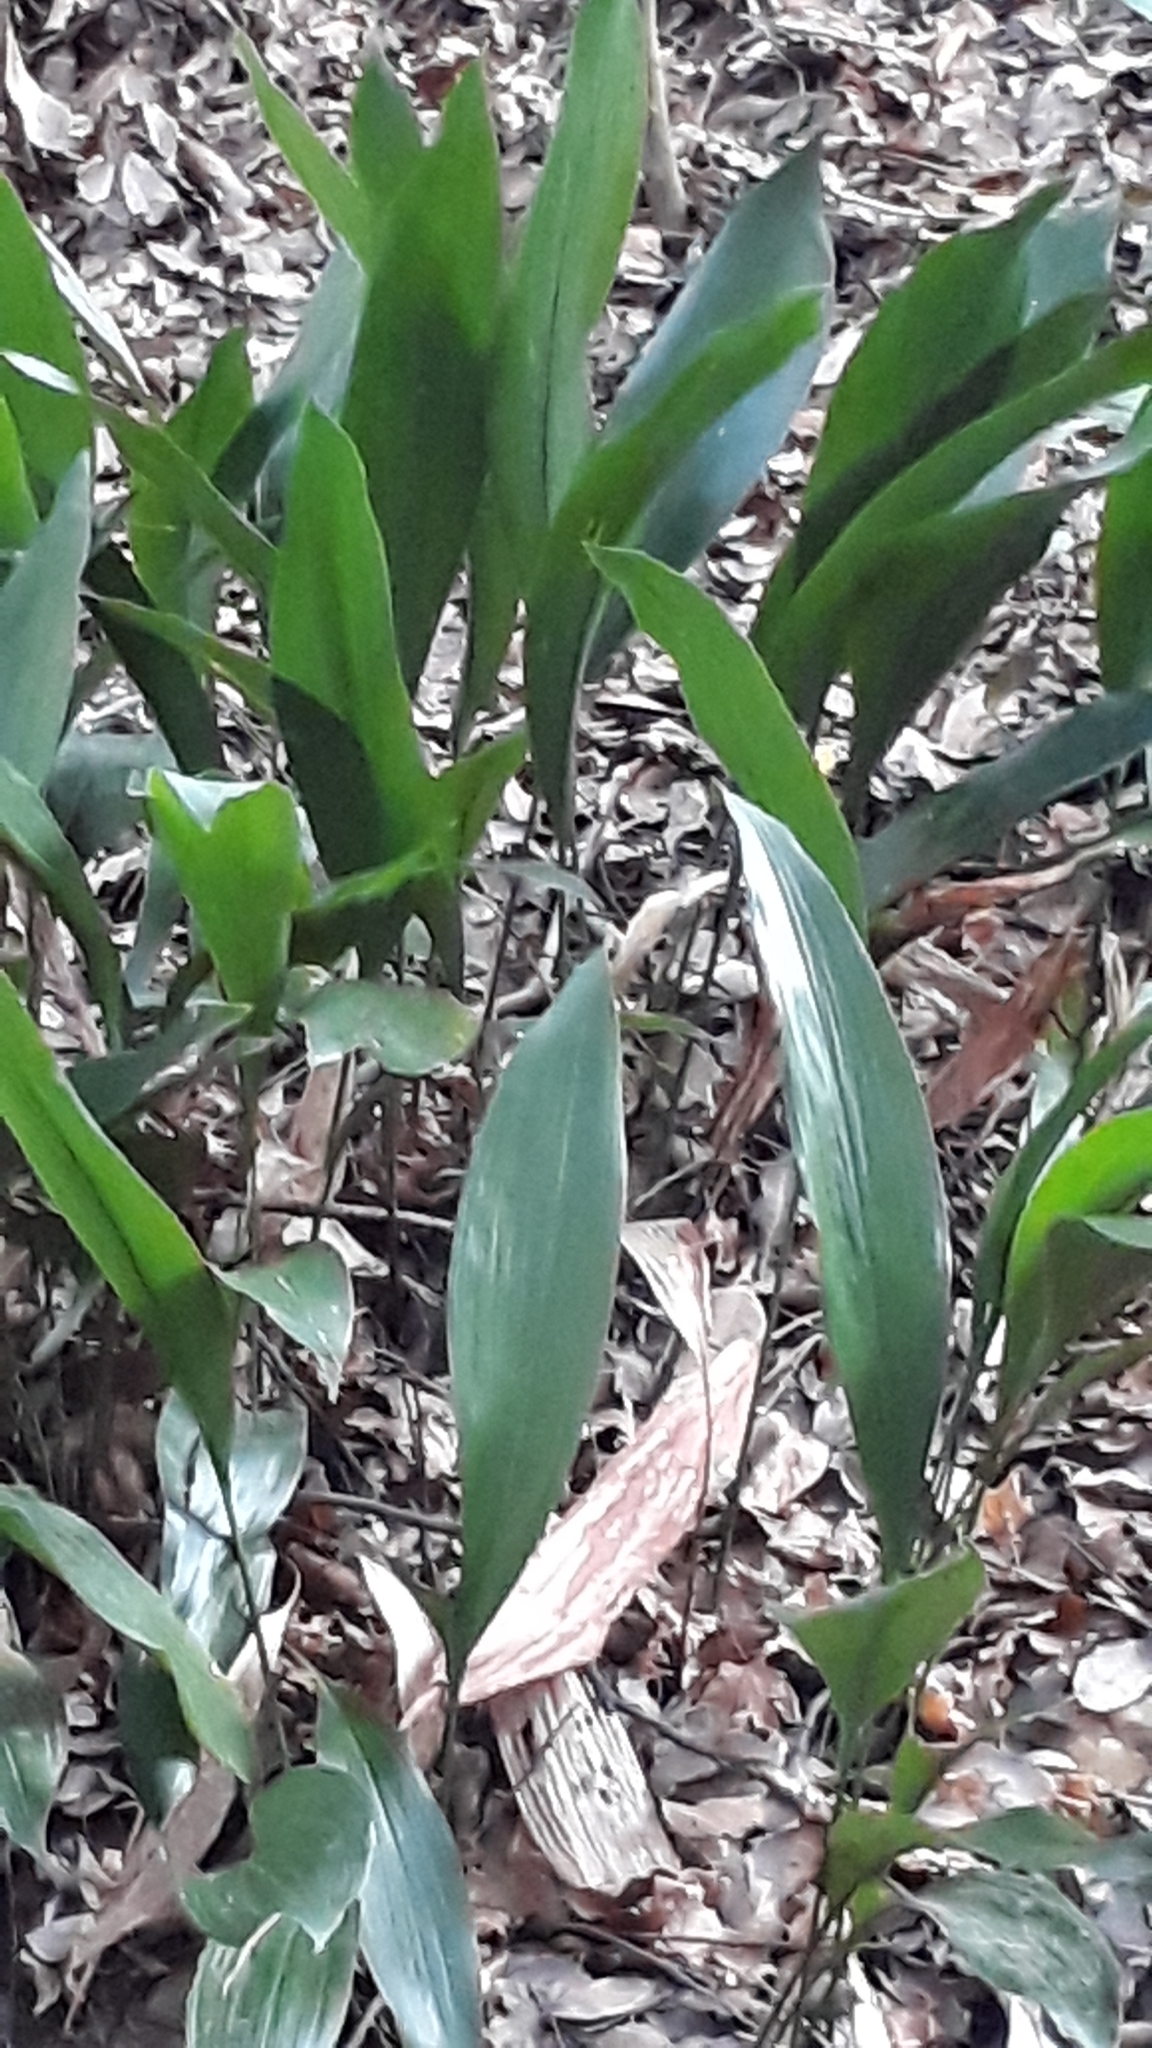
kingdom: Plantae
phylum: Tracheophyta
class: Liliopsida
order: Asparagales
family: Asparagaceae
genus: Aspidistra
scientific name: Aspidistra elatior
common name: Cast-iron-plant
